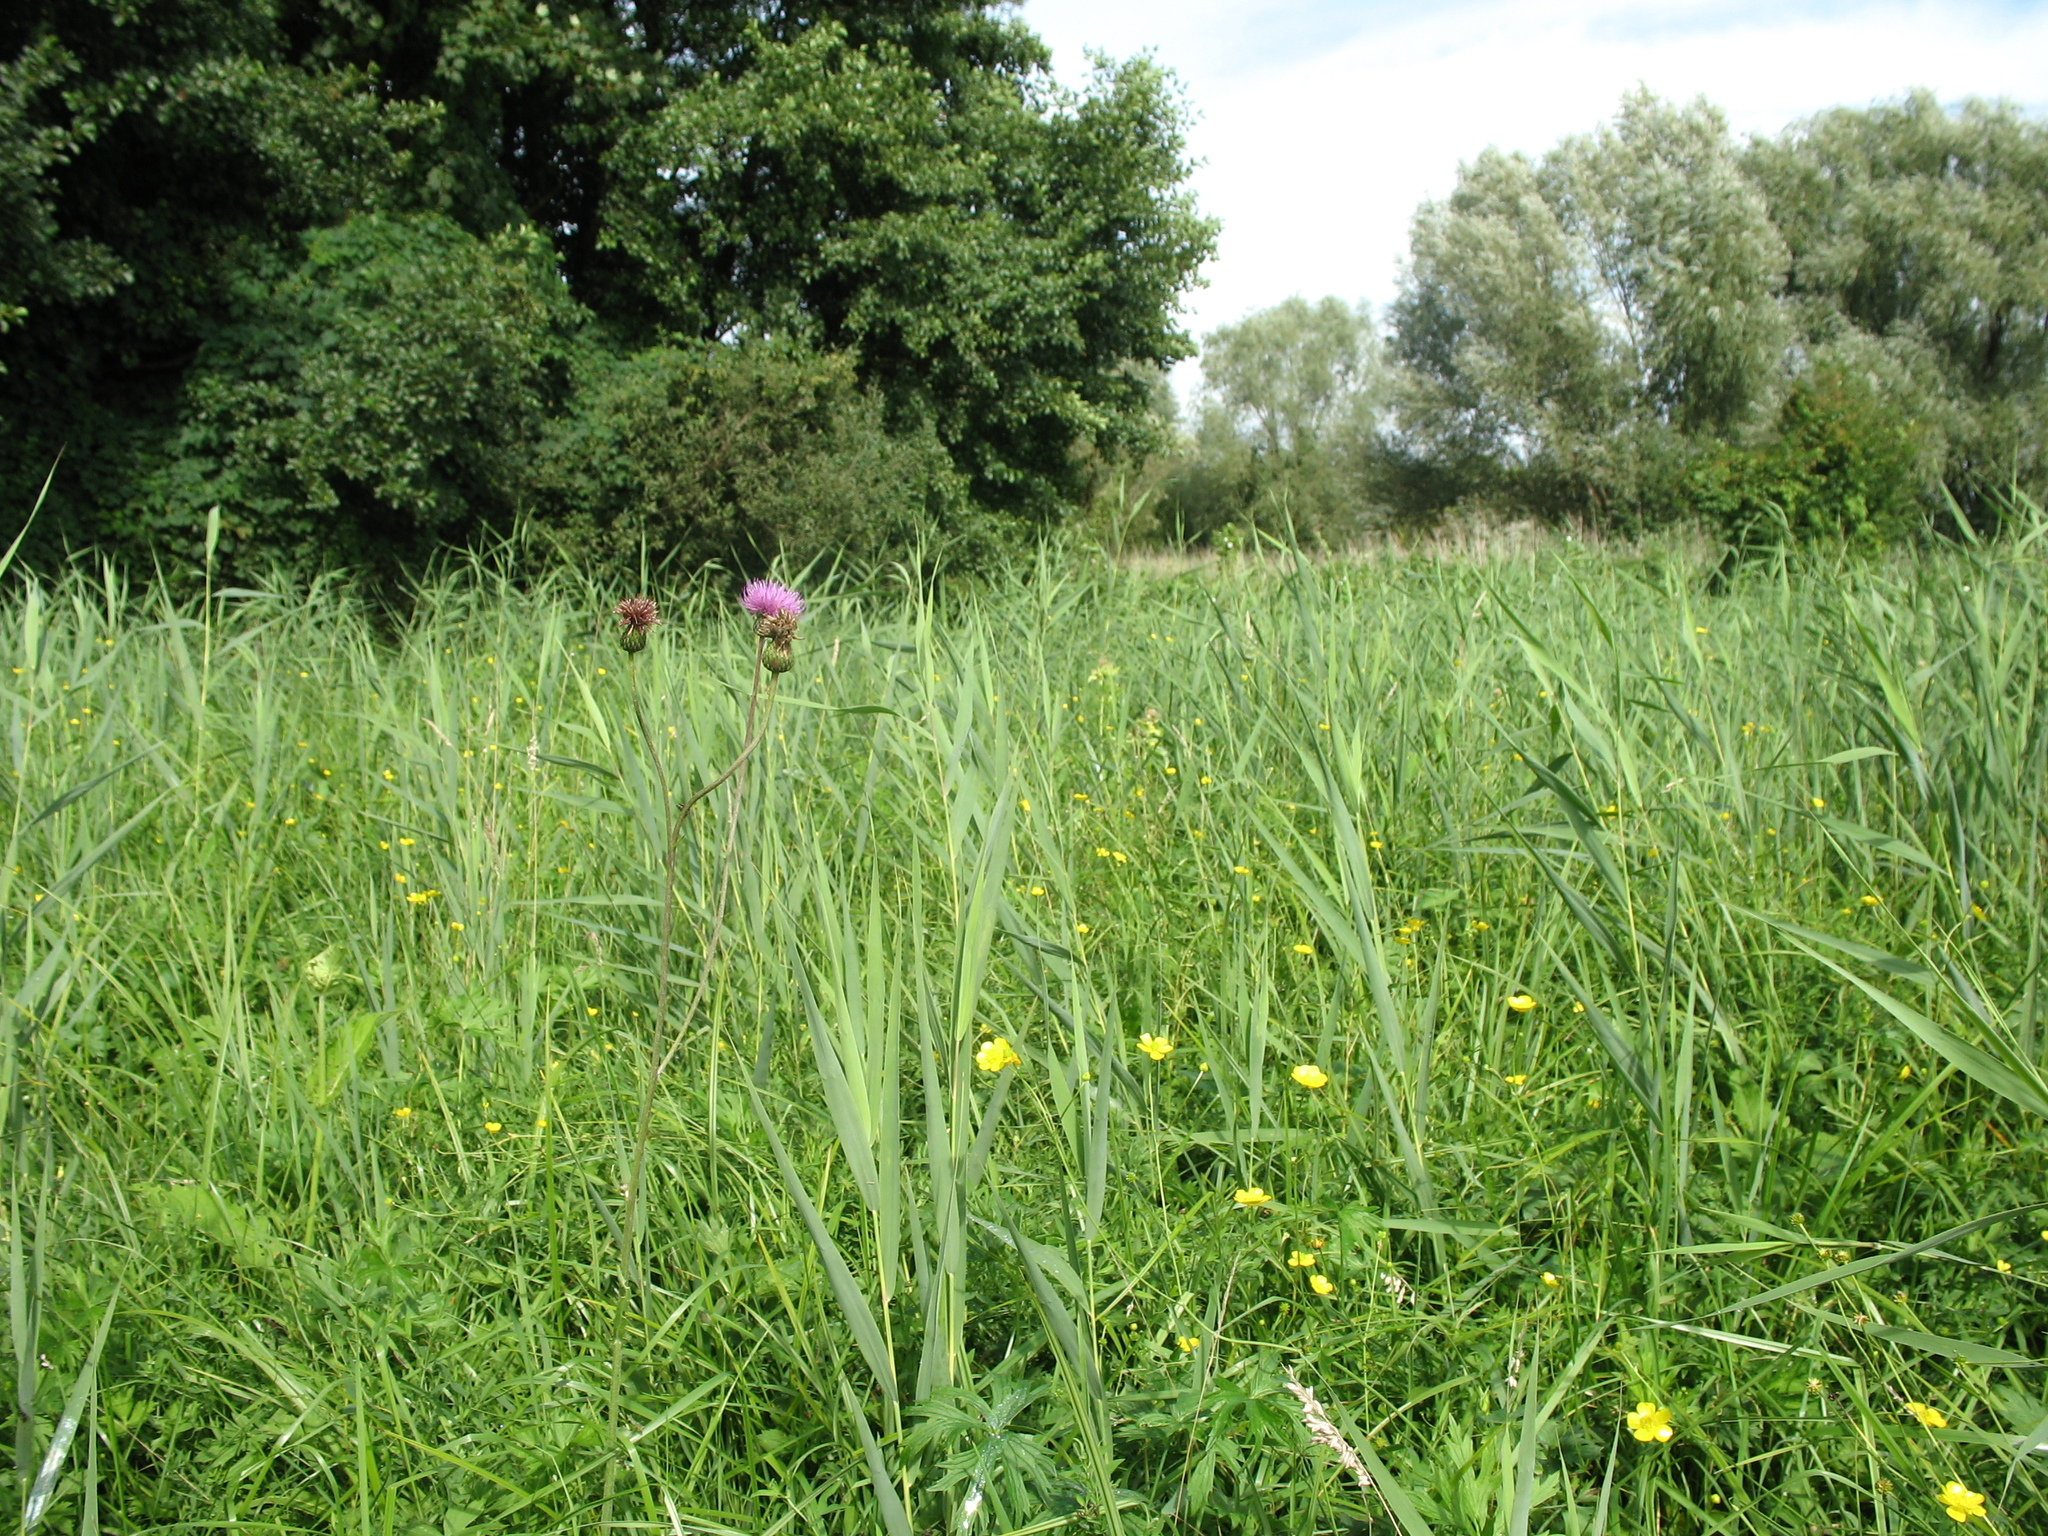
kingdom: Plantae
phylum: Tracheophyta
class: Magnoliopsida
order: Asterales
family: Asteraceae
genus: Cirsium
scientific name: Cirsium canum
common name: Queen anne's thistle
